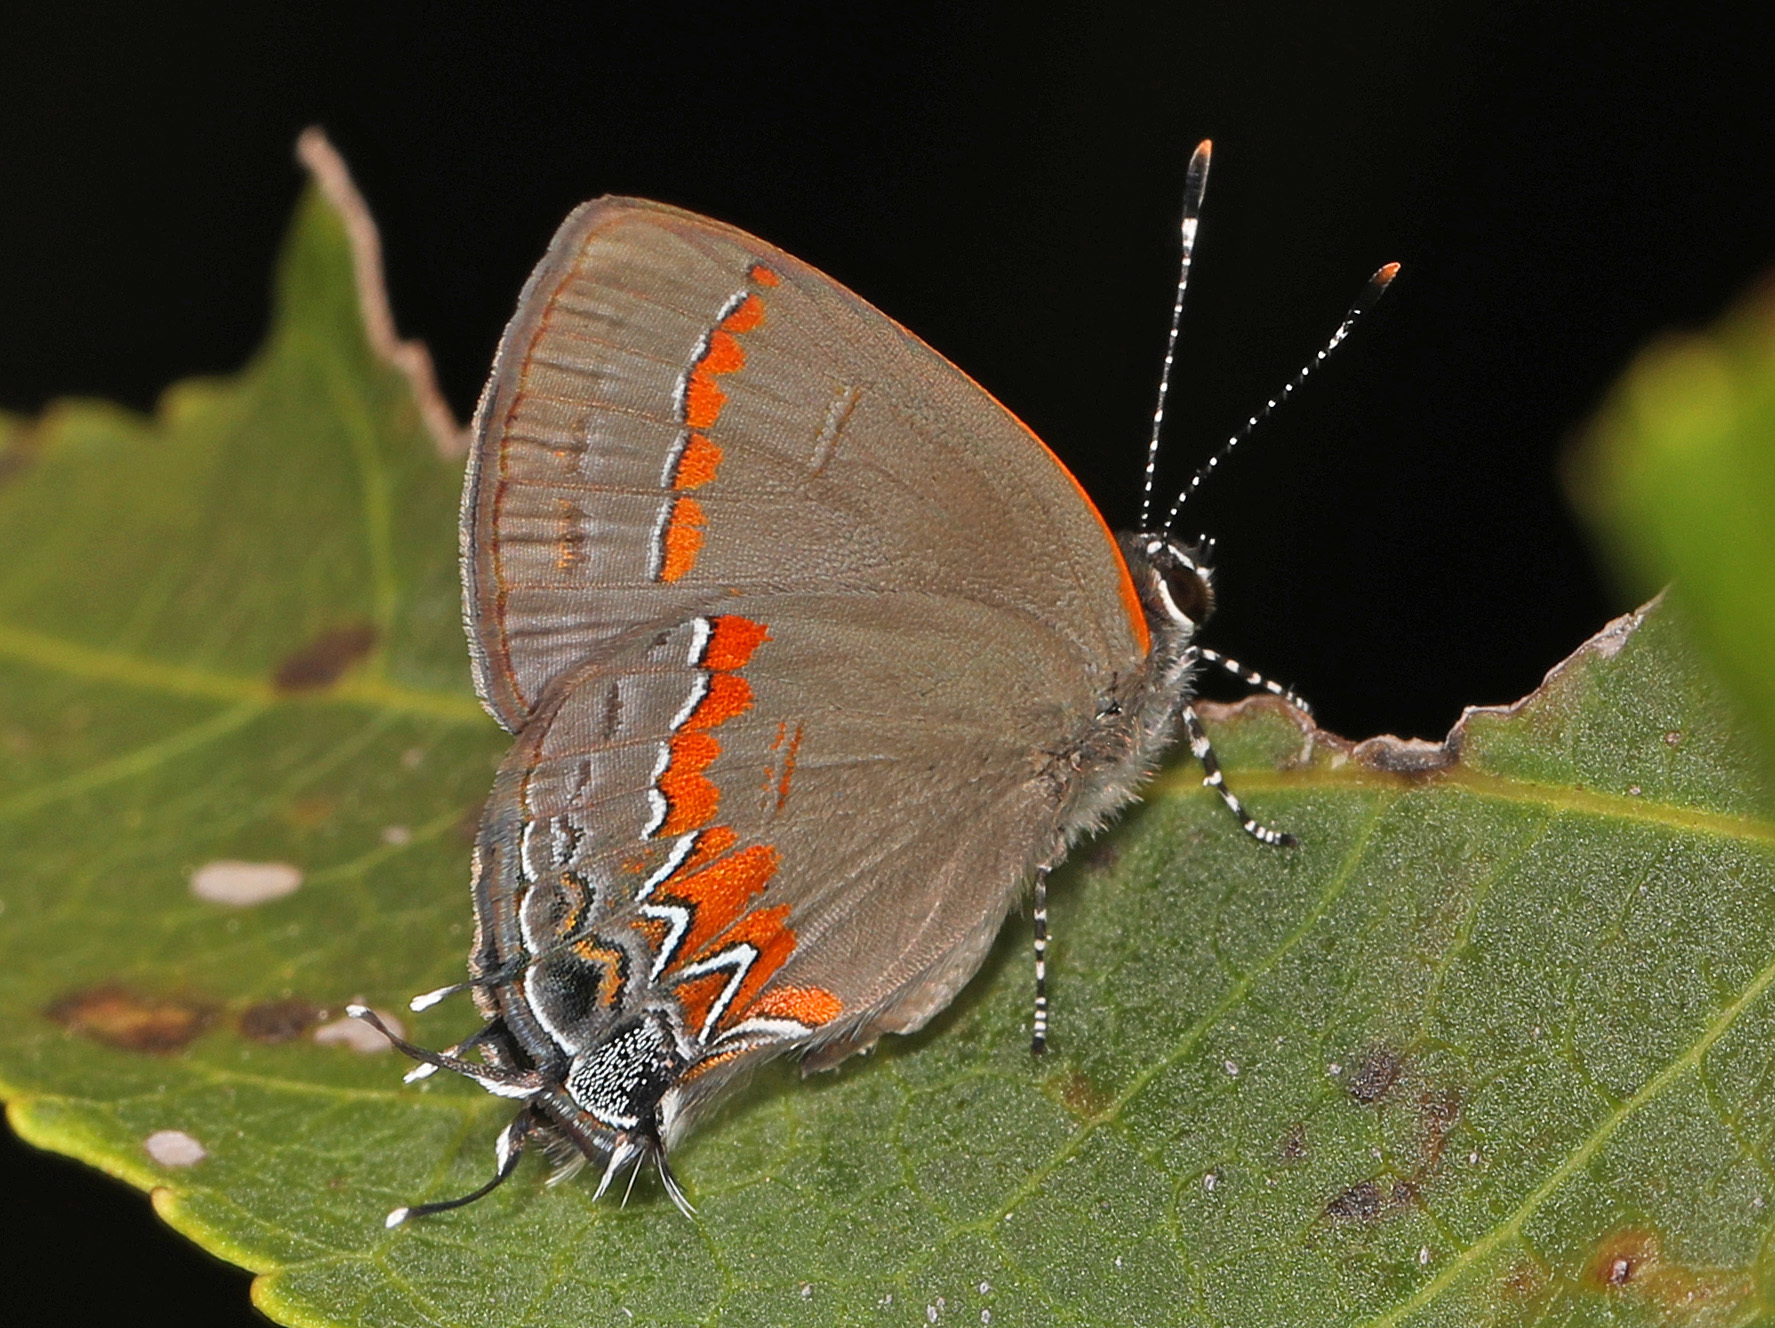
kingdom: Animalia
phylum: Arthropoda
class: Insecta
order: Lepidoptera
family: Lycaenidae
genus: Calycopis
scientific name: Calycopis cecrops
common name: Red-banded hairstreak
